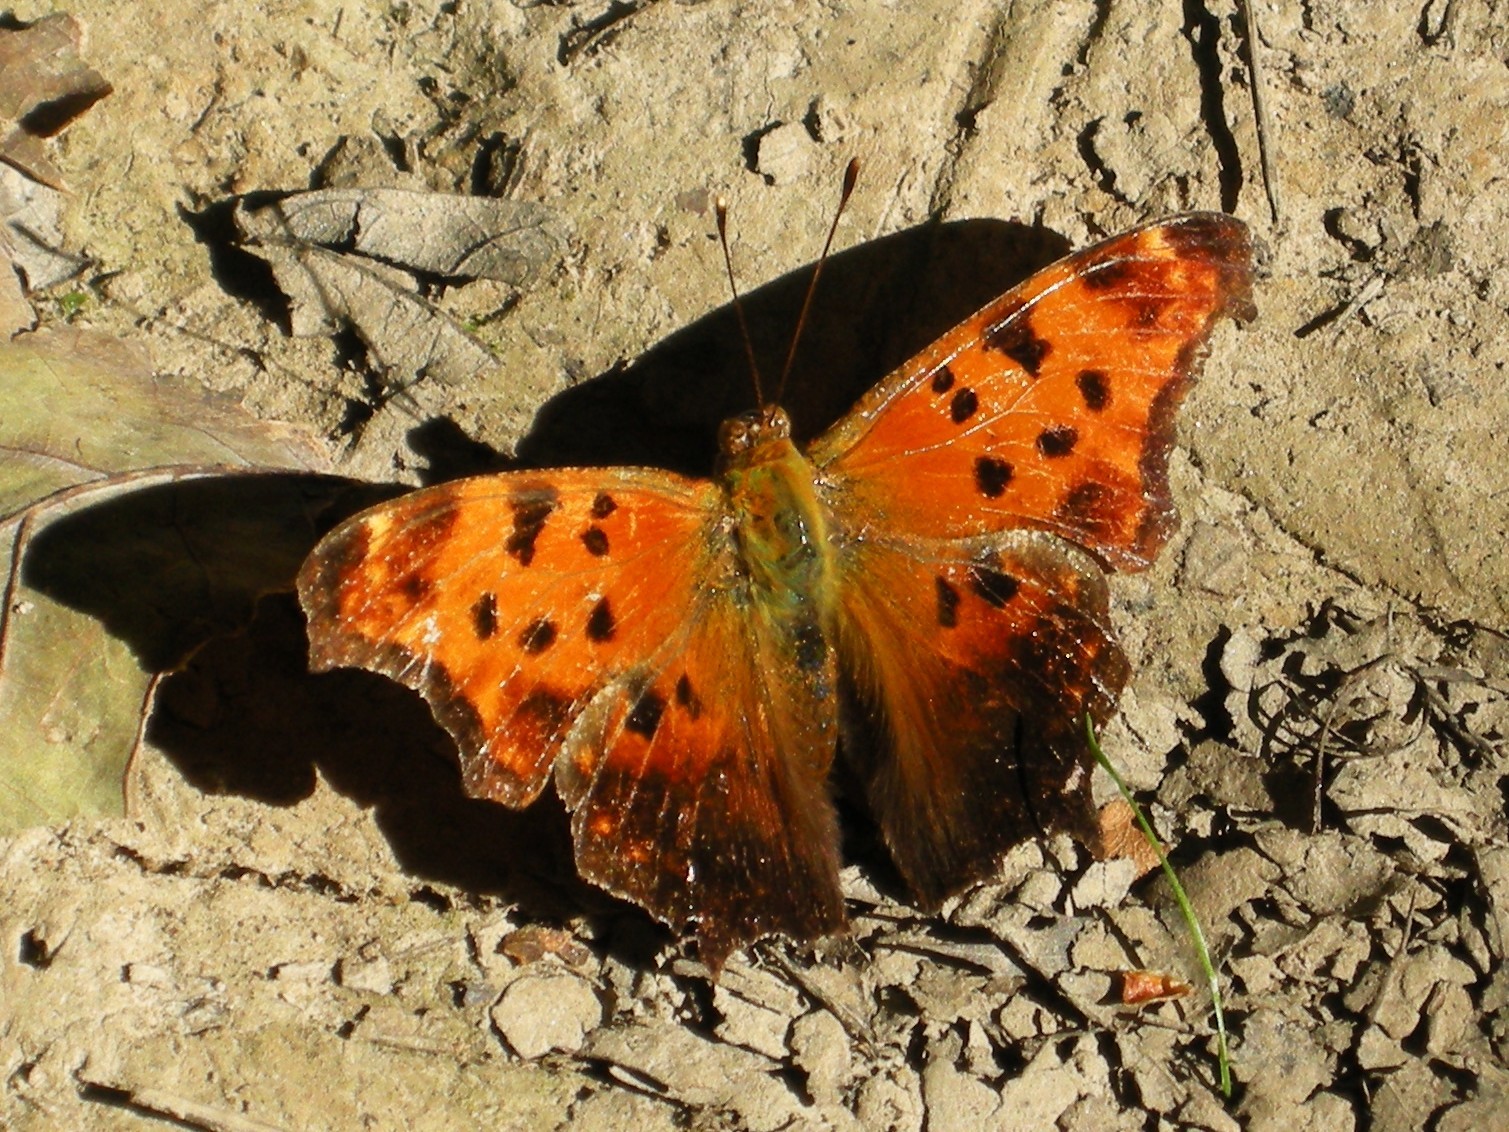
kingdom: Animalia
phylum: Arthropoda
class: Insecta
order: Lepidoptera
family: Nymphalidae
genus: Polygonia
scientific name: Polygonia comma
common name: Eastern comma
